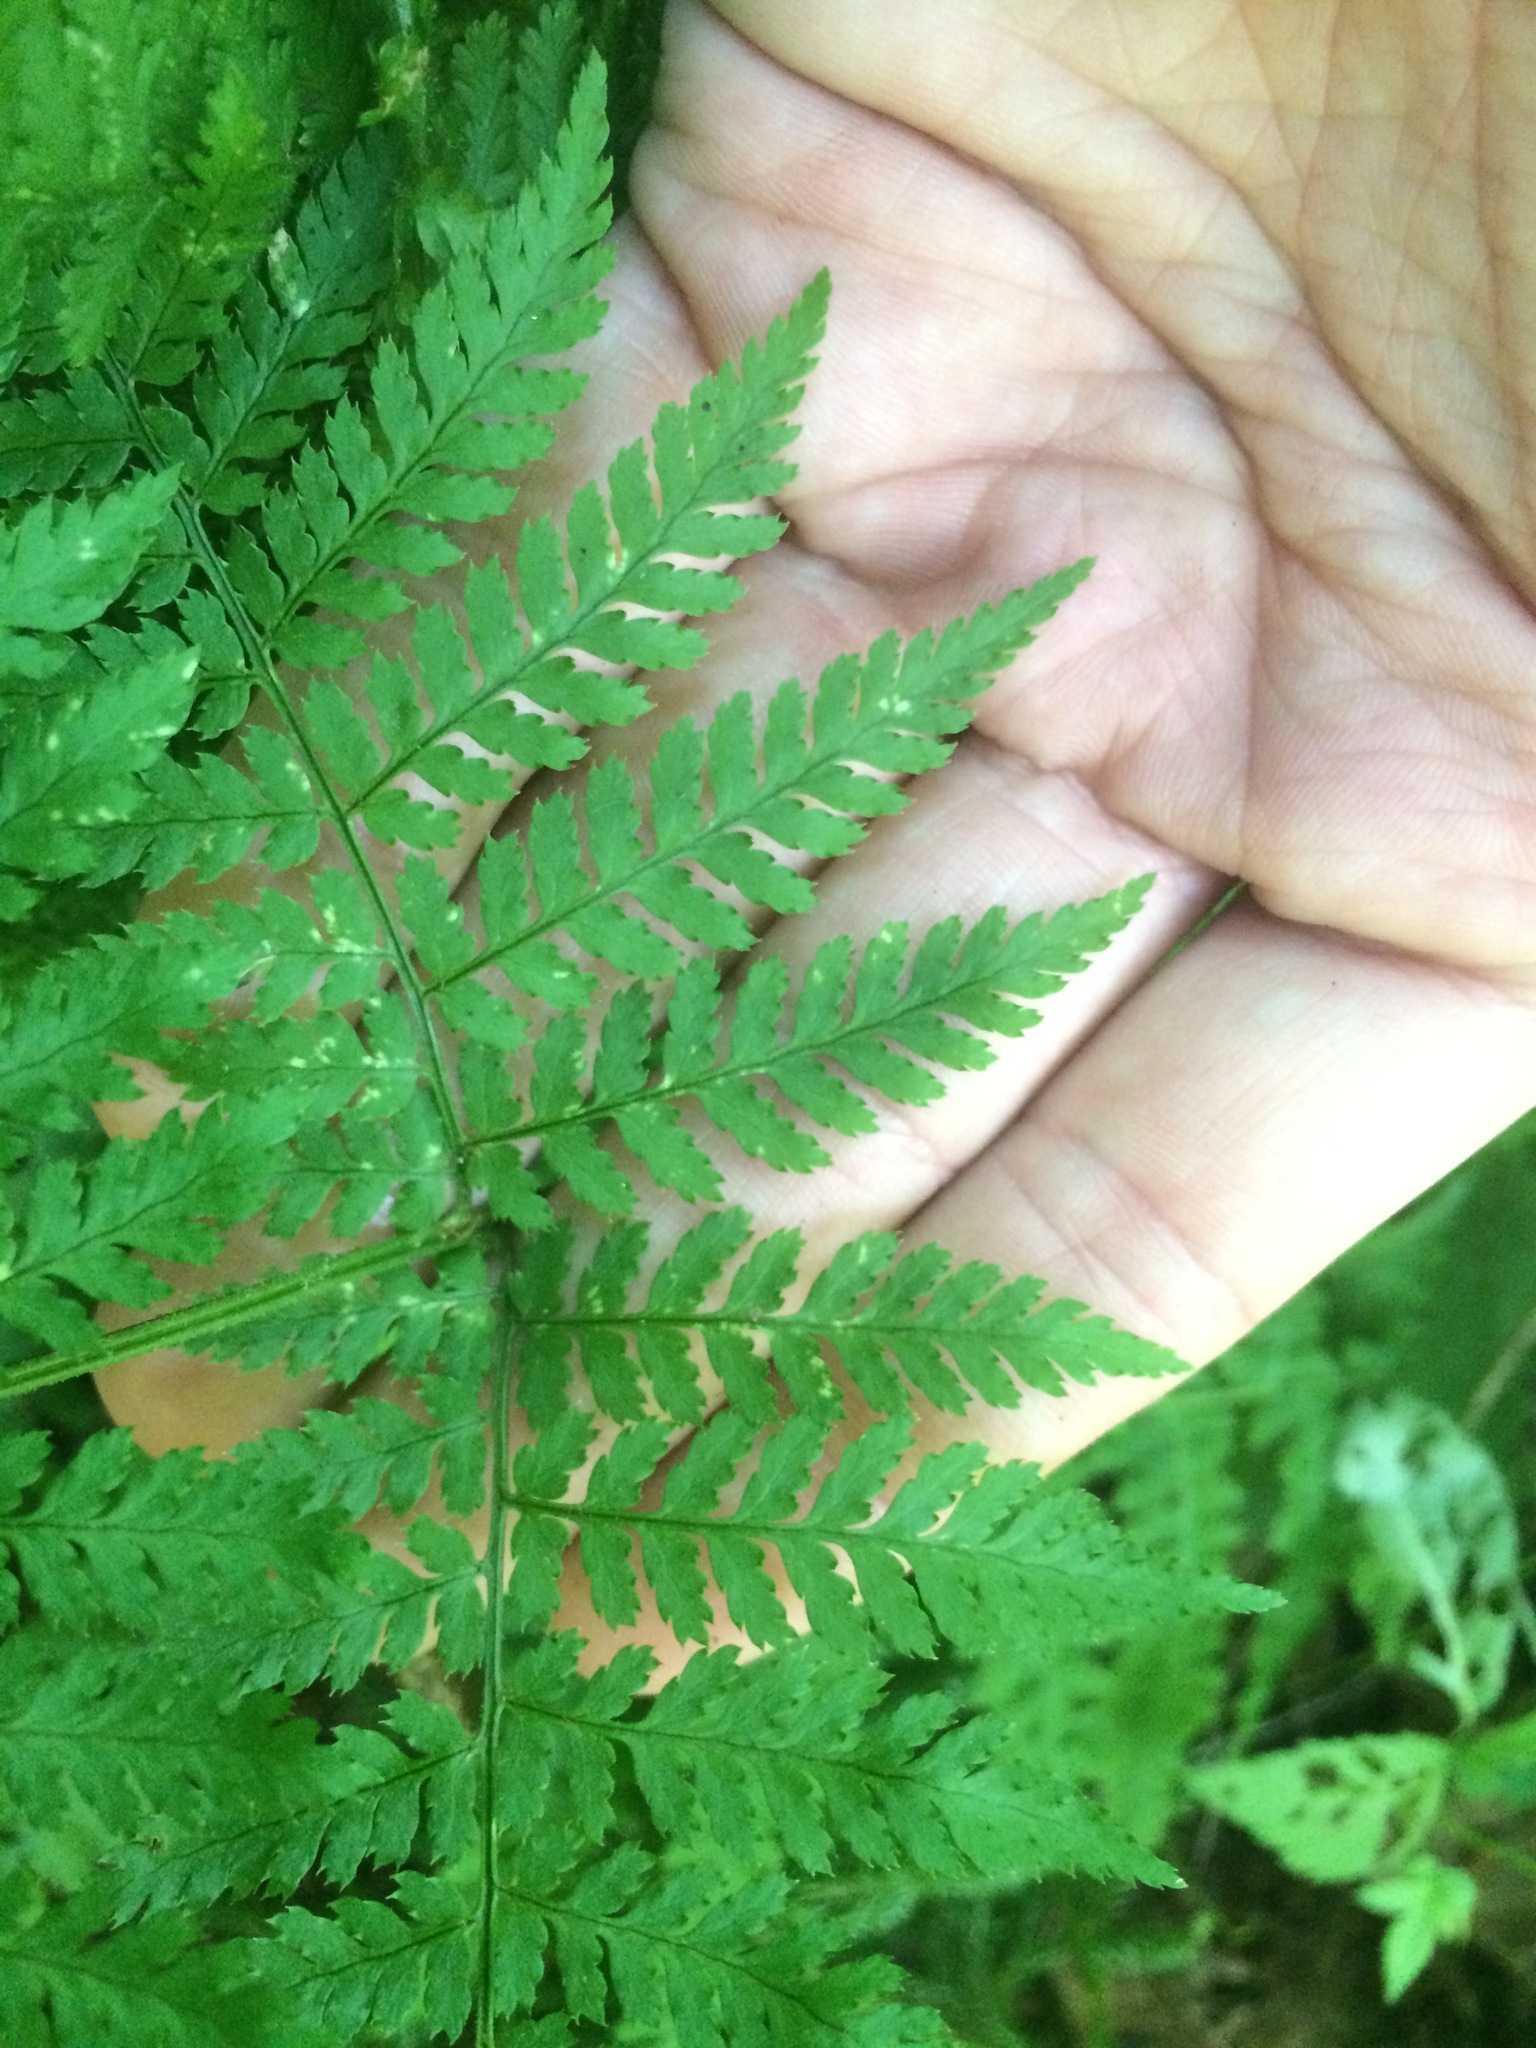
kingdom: Plantae
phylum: Tracheophyta
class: Polypodiopsida
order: Polypodiales
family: Dryopteridaceae
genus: Dryopteris
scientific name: Dryopteris intermedia
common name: Evergreen wood fern
